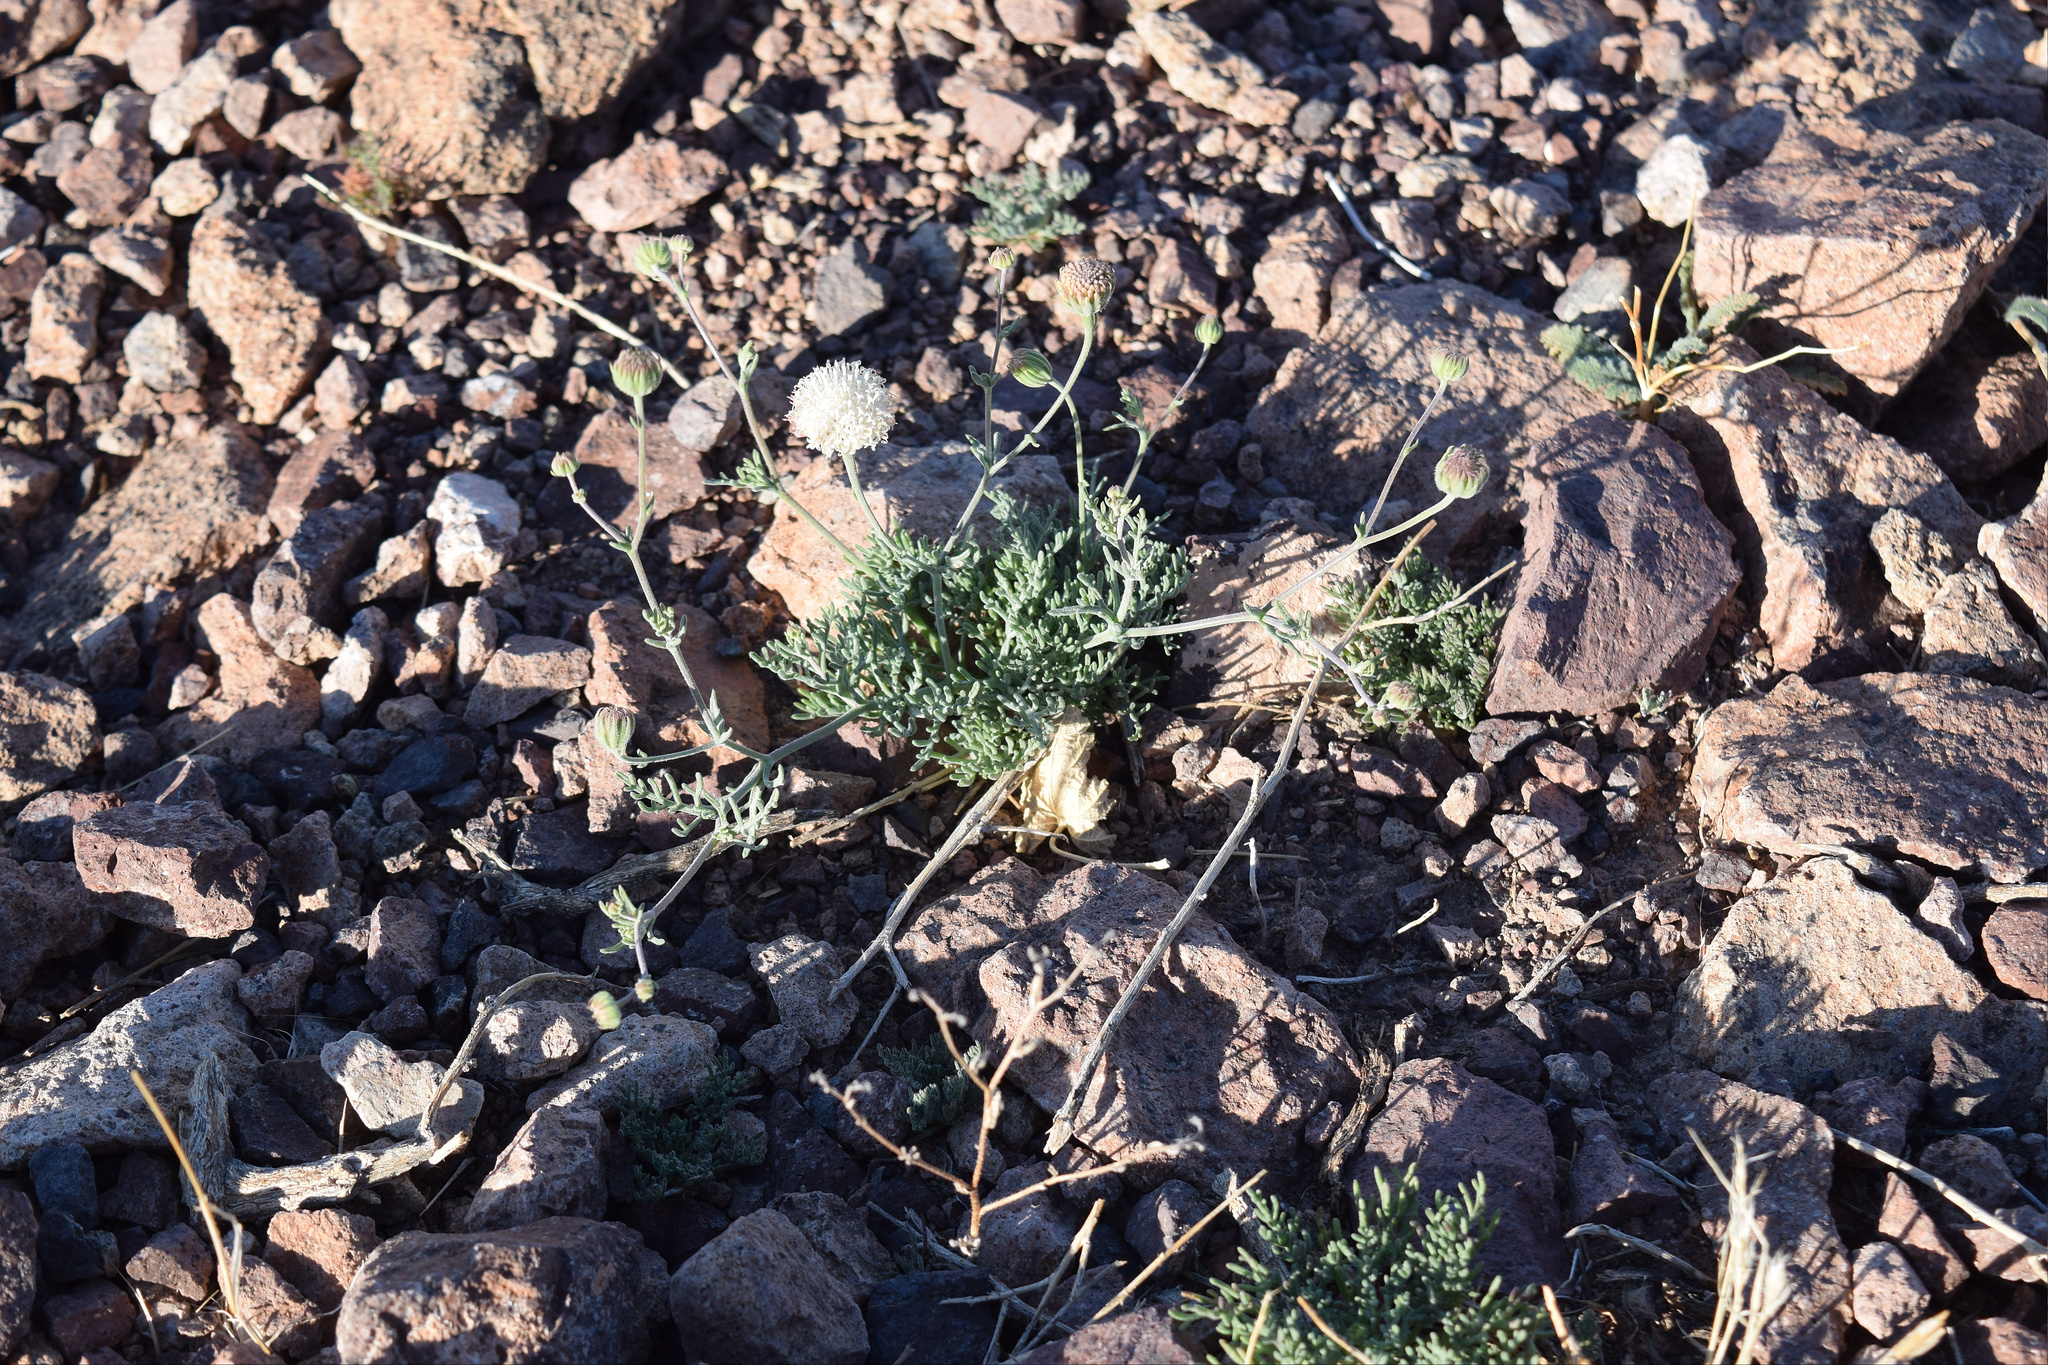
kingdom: Plantae
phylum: Tracheophyta
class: Magnoliopsida
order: Asterales
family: Asteraceae
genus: Chaenactis
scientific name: Chaenactis carphoclinia
